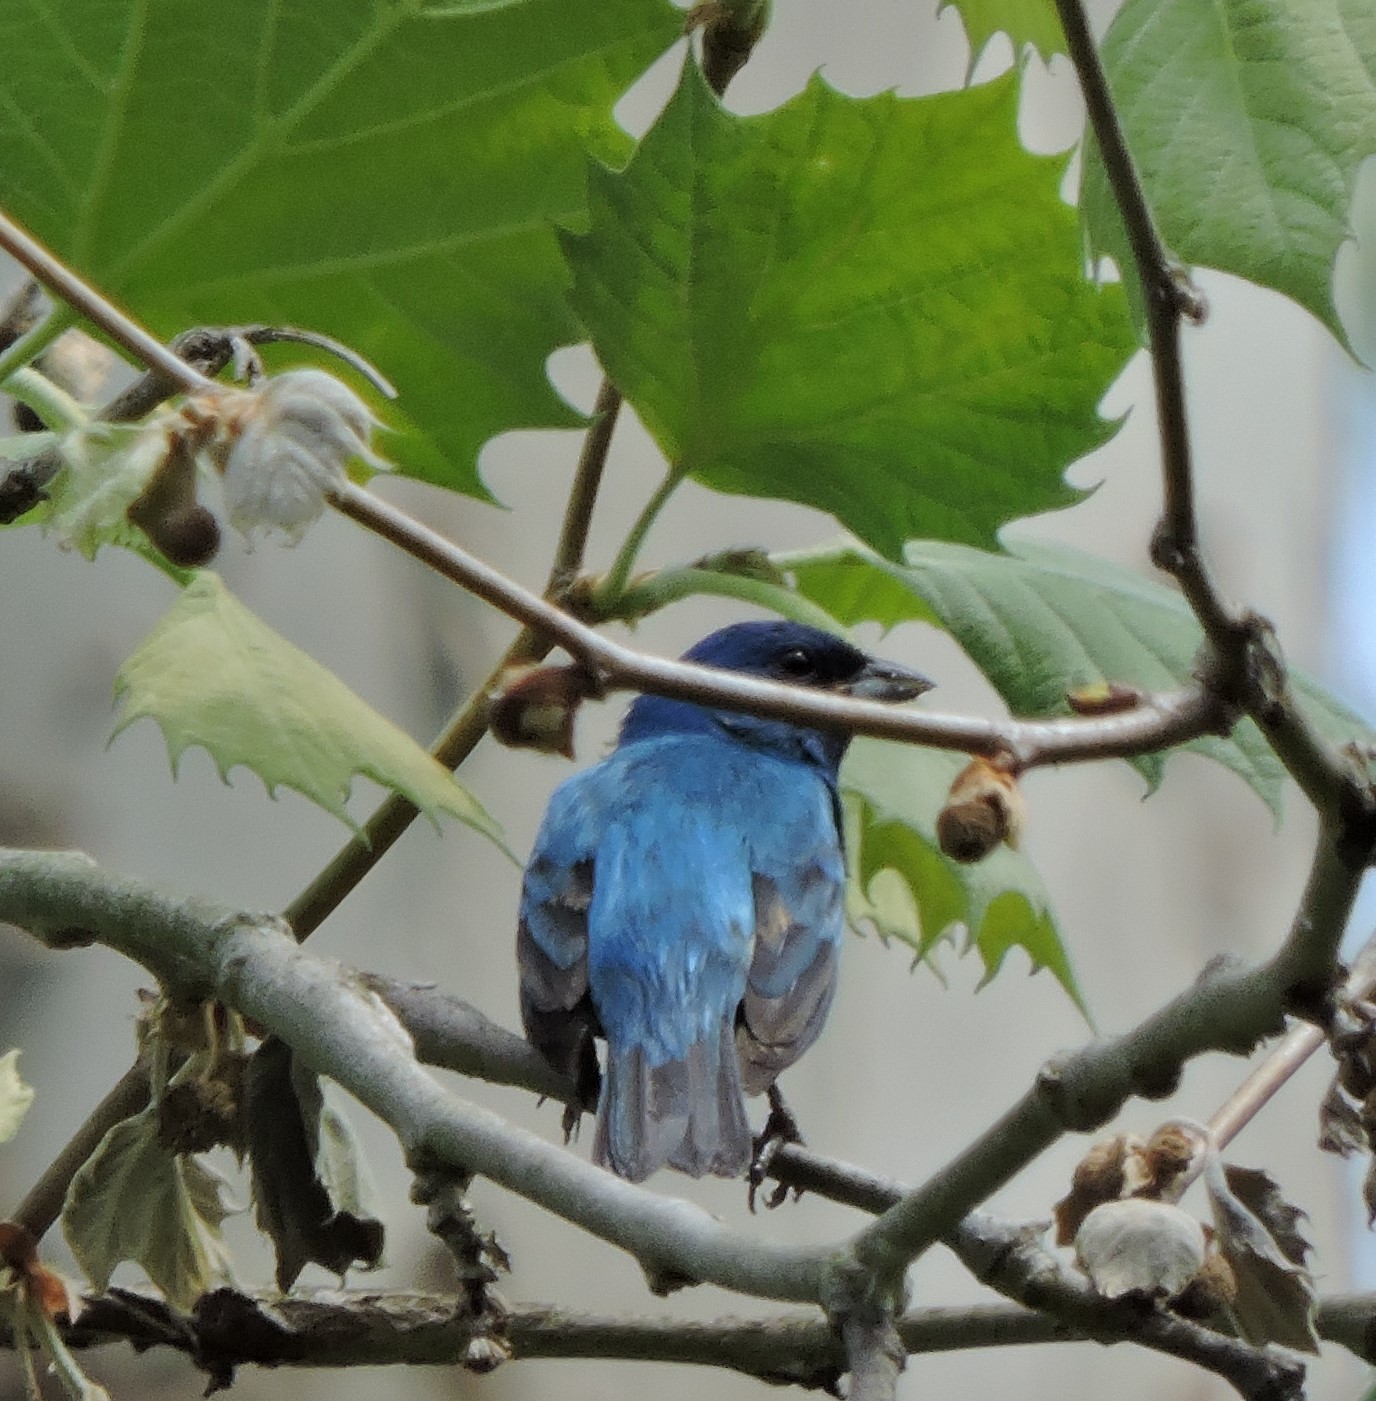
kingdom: Animalia
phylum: Chordata
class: Aves
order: Passeriformes
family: Cardinalidae
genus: Passerina
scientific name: Passerina cyanea
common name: Indigo bunting
